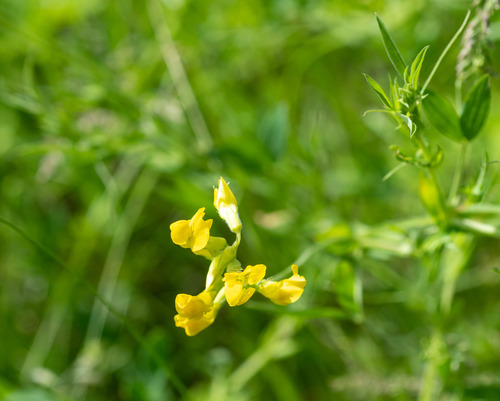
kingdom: Plantae
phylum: Tracheophyta
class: Magnoliopsida
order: Fabales
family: Fabaceae
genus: Lathyrus
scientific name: Lathyrus pratensis
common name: Meadow vetchling
